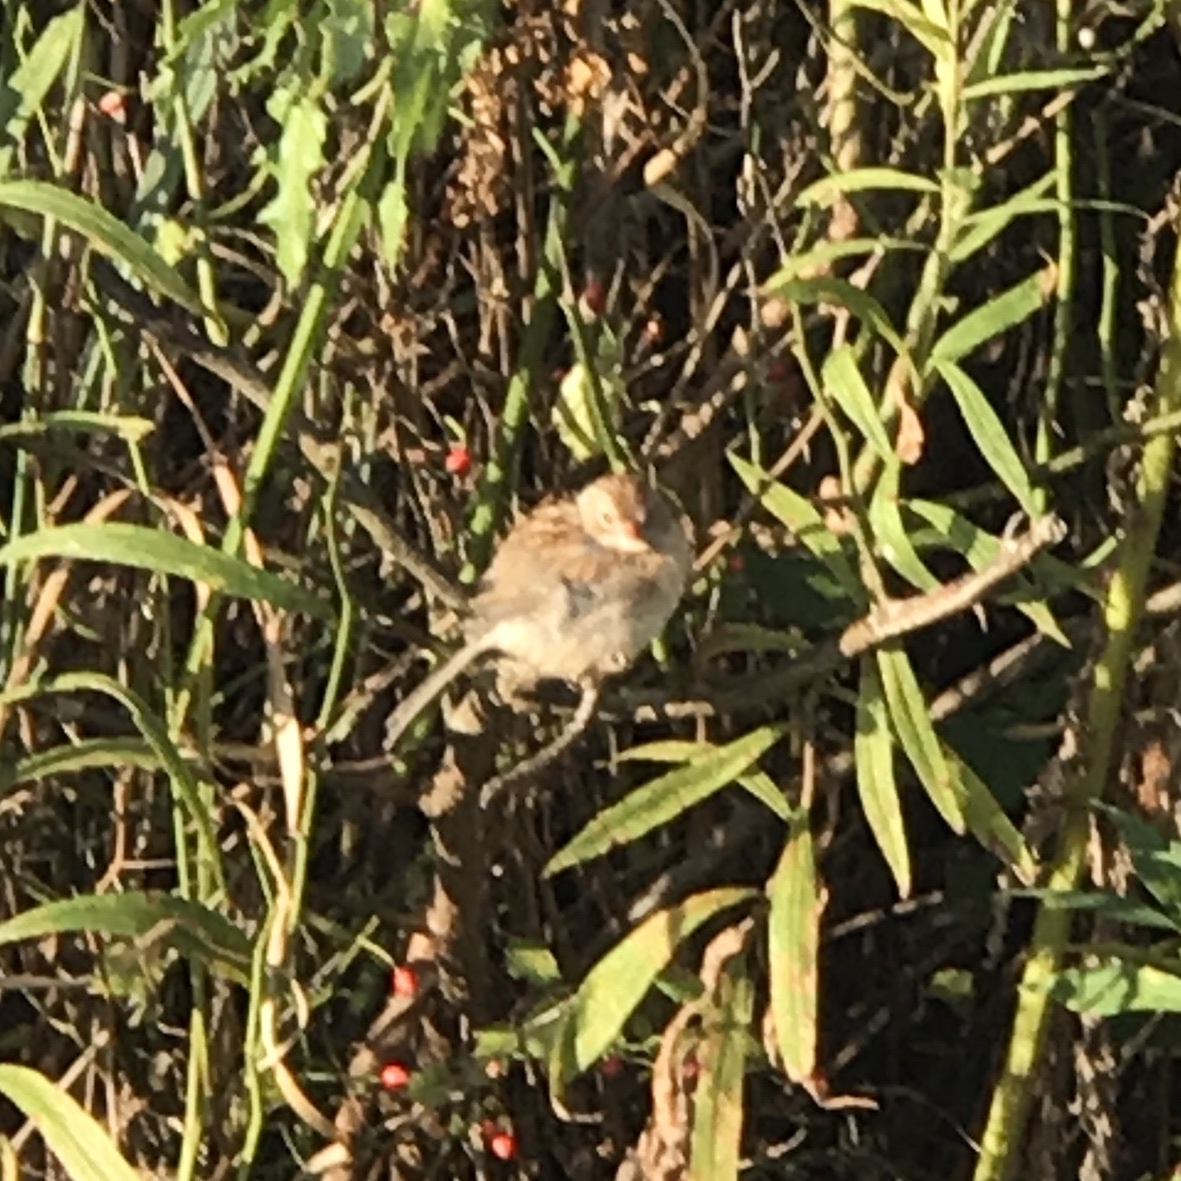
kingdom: Animalia
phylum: Chordata
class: Aves
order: Passeriformes
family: Passerellidae
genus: Spizella
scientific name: Spizella pusilla
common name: Field sparrow
